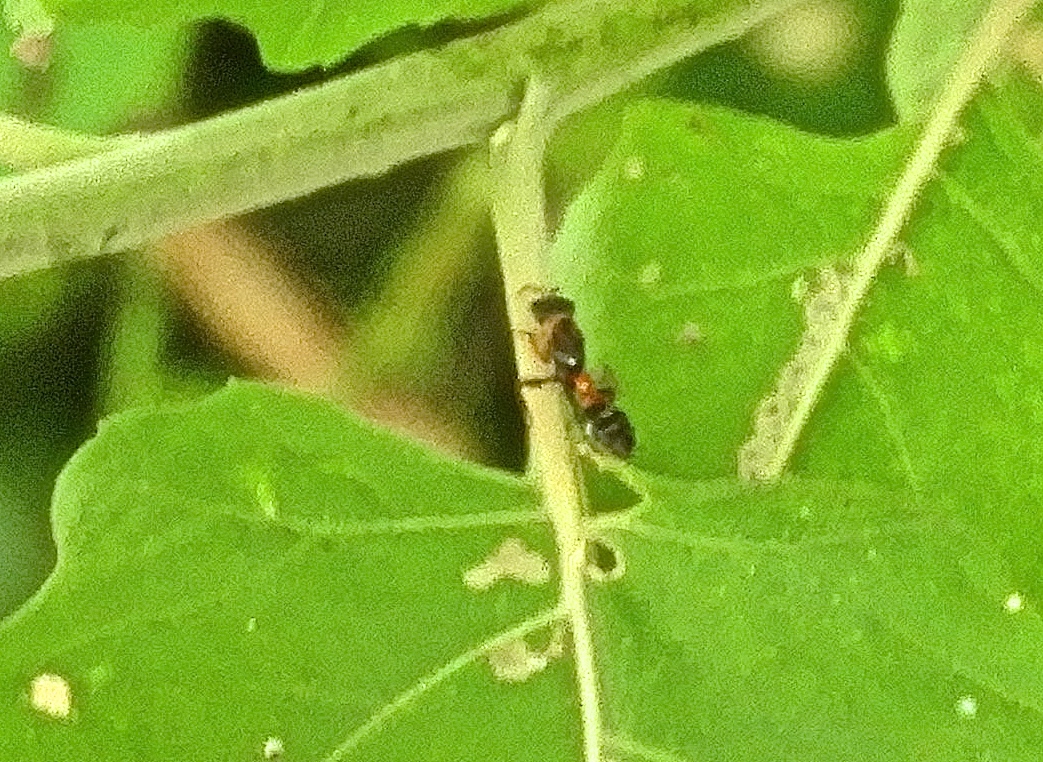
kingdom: Animalia
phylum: Arthropoda
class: Insecta
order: Hymenoptera
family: Formicidae
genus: Pseudomyrmex
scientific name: Pseudomyrmex gracilis
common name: Graceful twig ant
